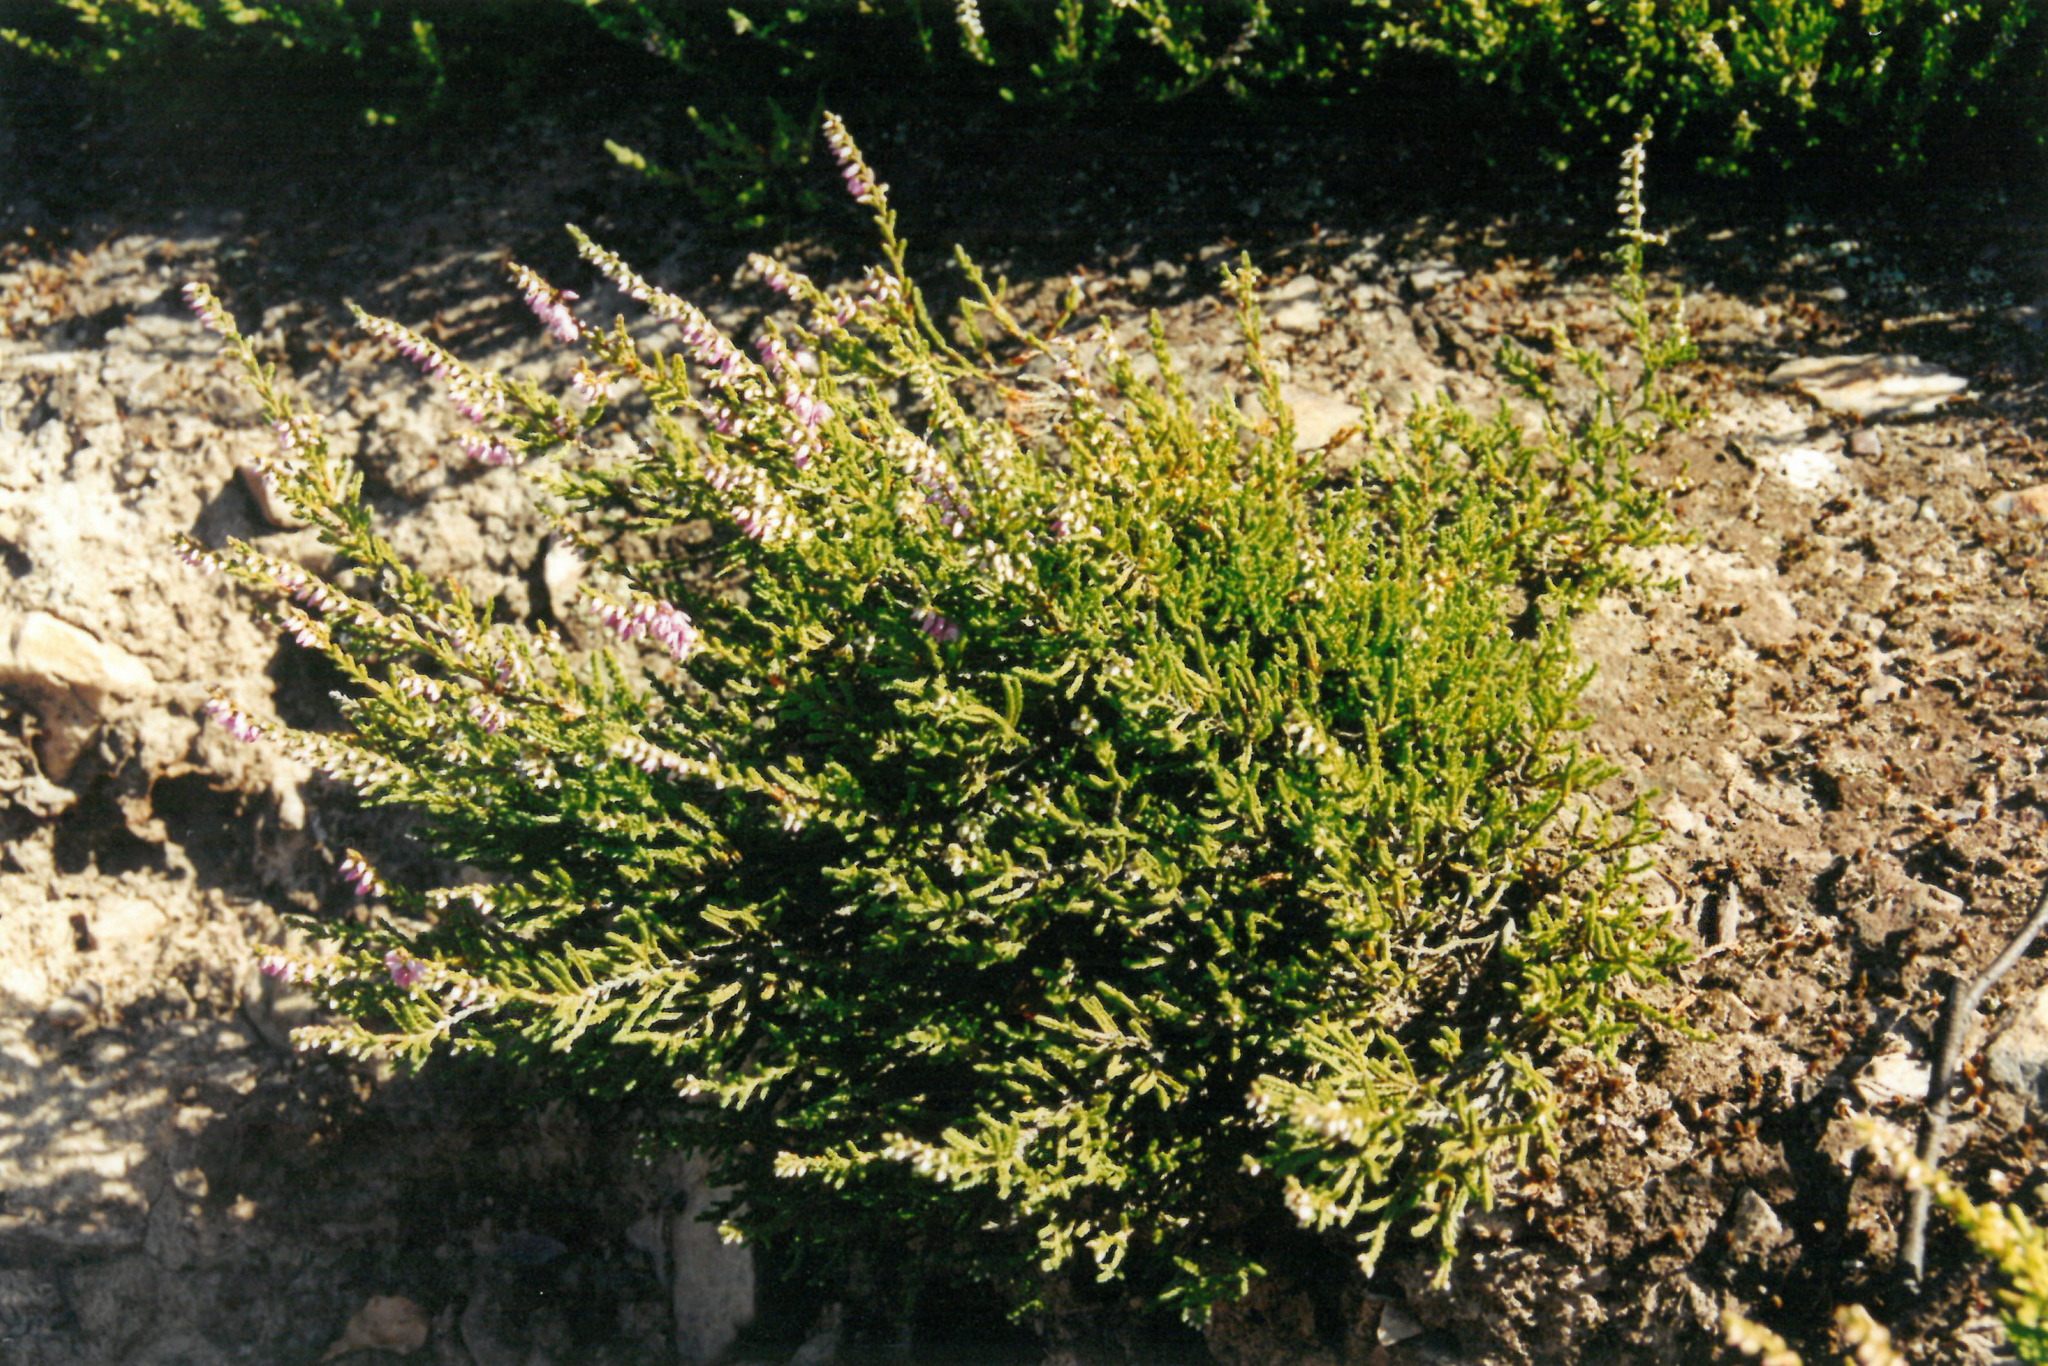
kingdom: Plantae
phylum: Tracheophyta
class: Magnoliopsida
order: Ericales
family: Ericaceae
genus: Calluna
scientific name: Calluna vulgaris
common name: Heather
